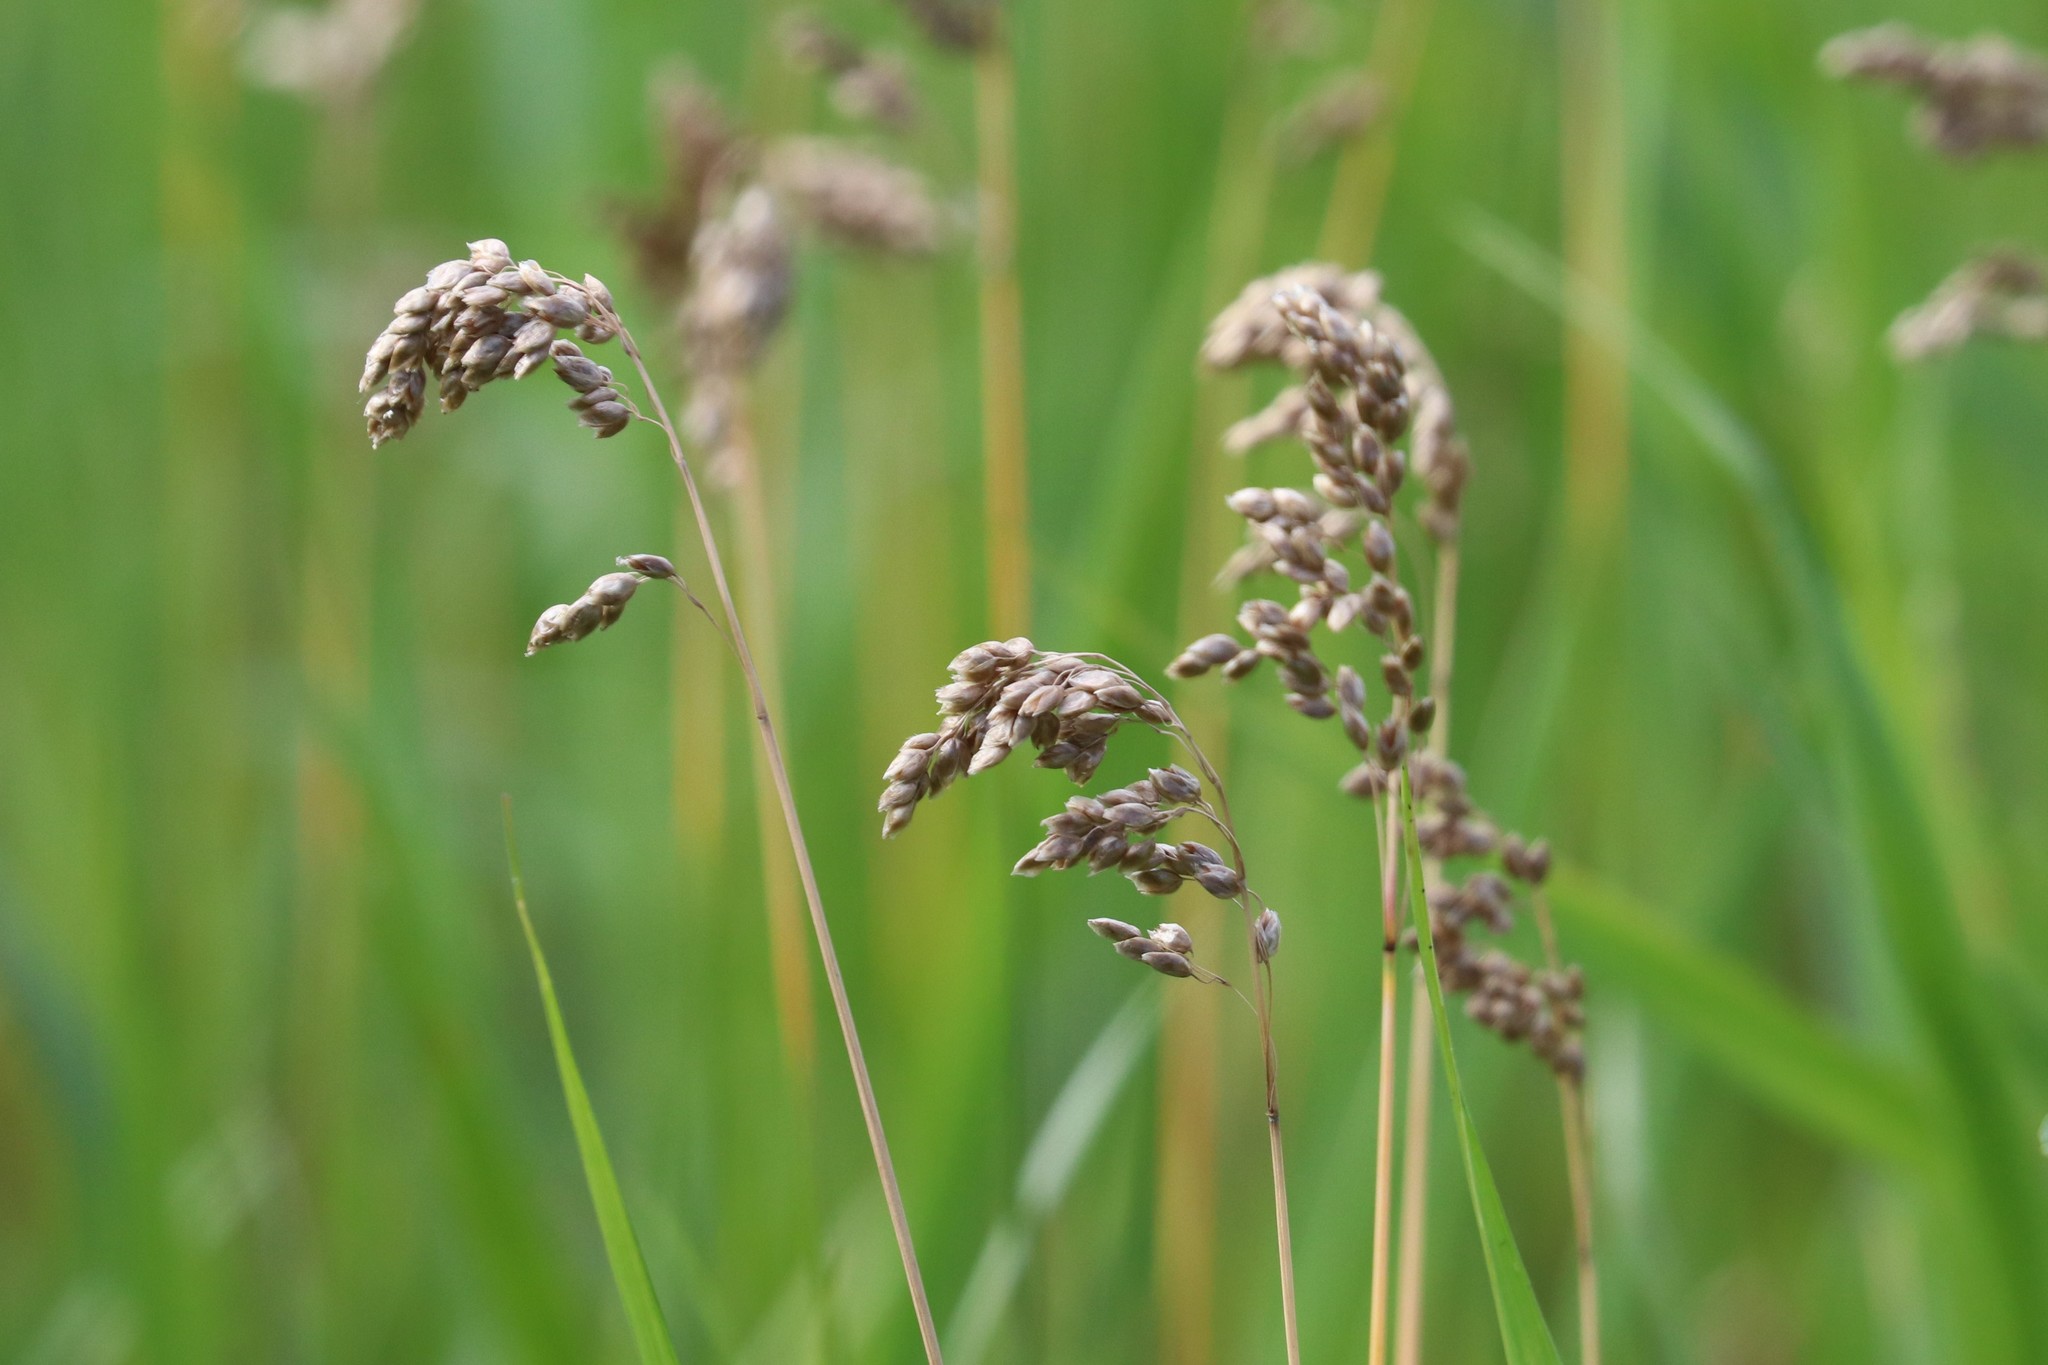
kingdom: Plantae
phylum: Tracheophyta
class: Liliopsida
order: Poales
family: Poaceae
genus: Anthoxanthum
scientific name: Anthoxanthum nitens
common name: Holy grass
